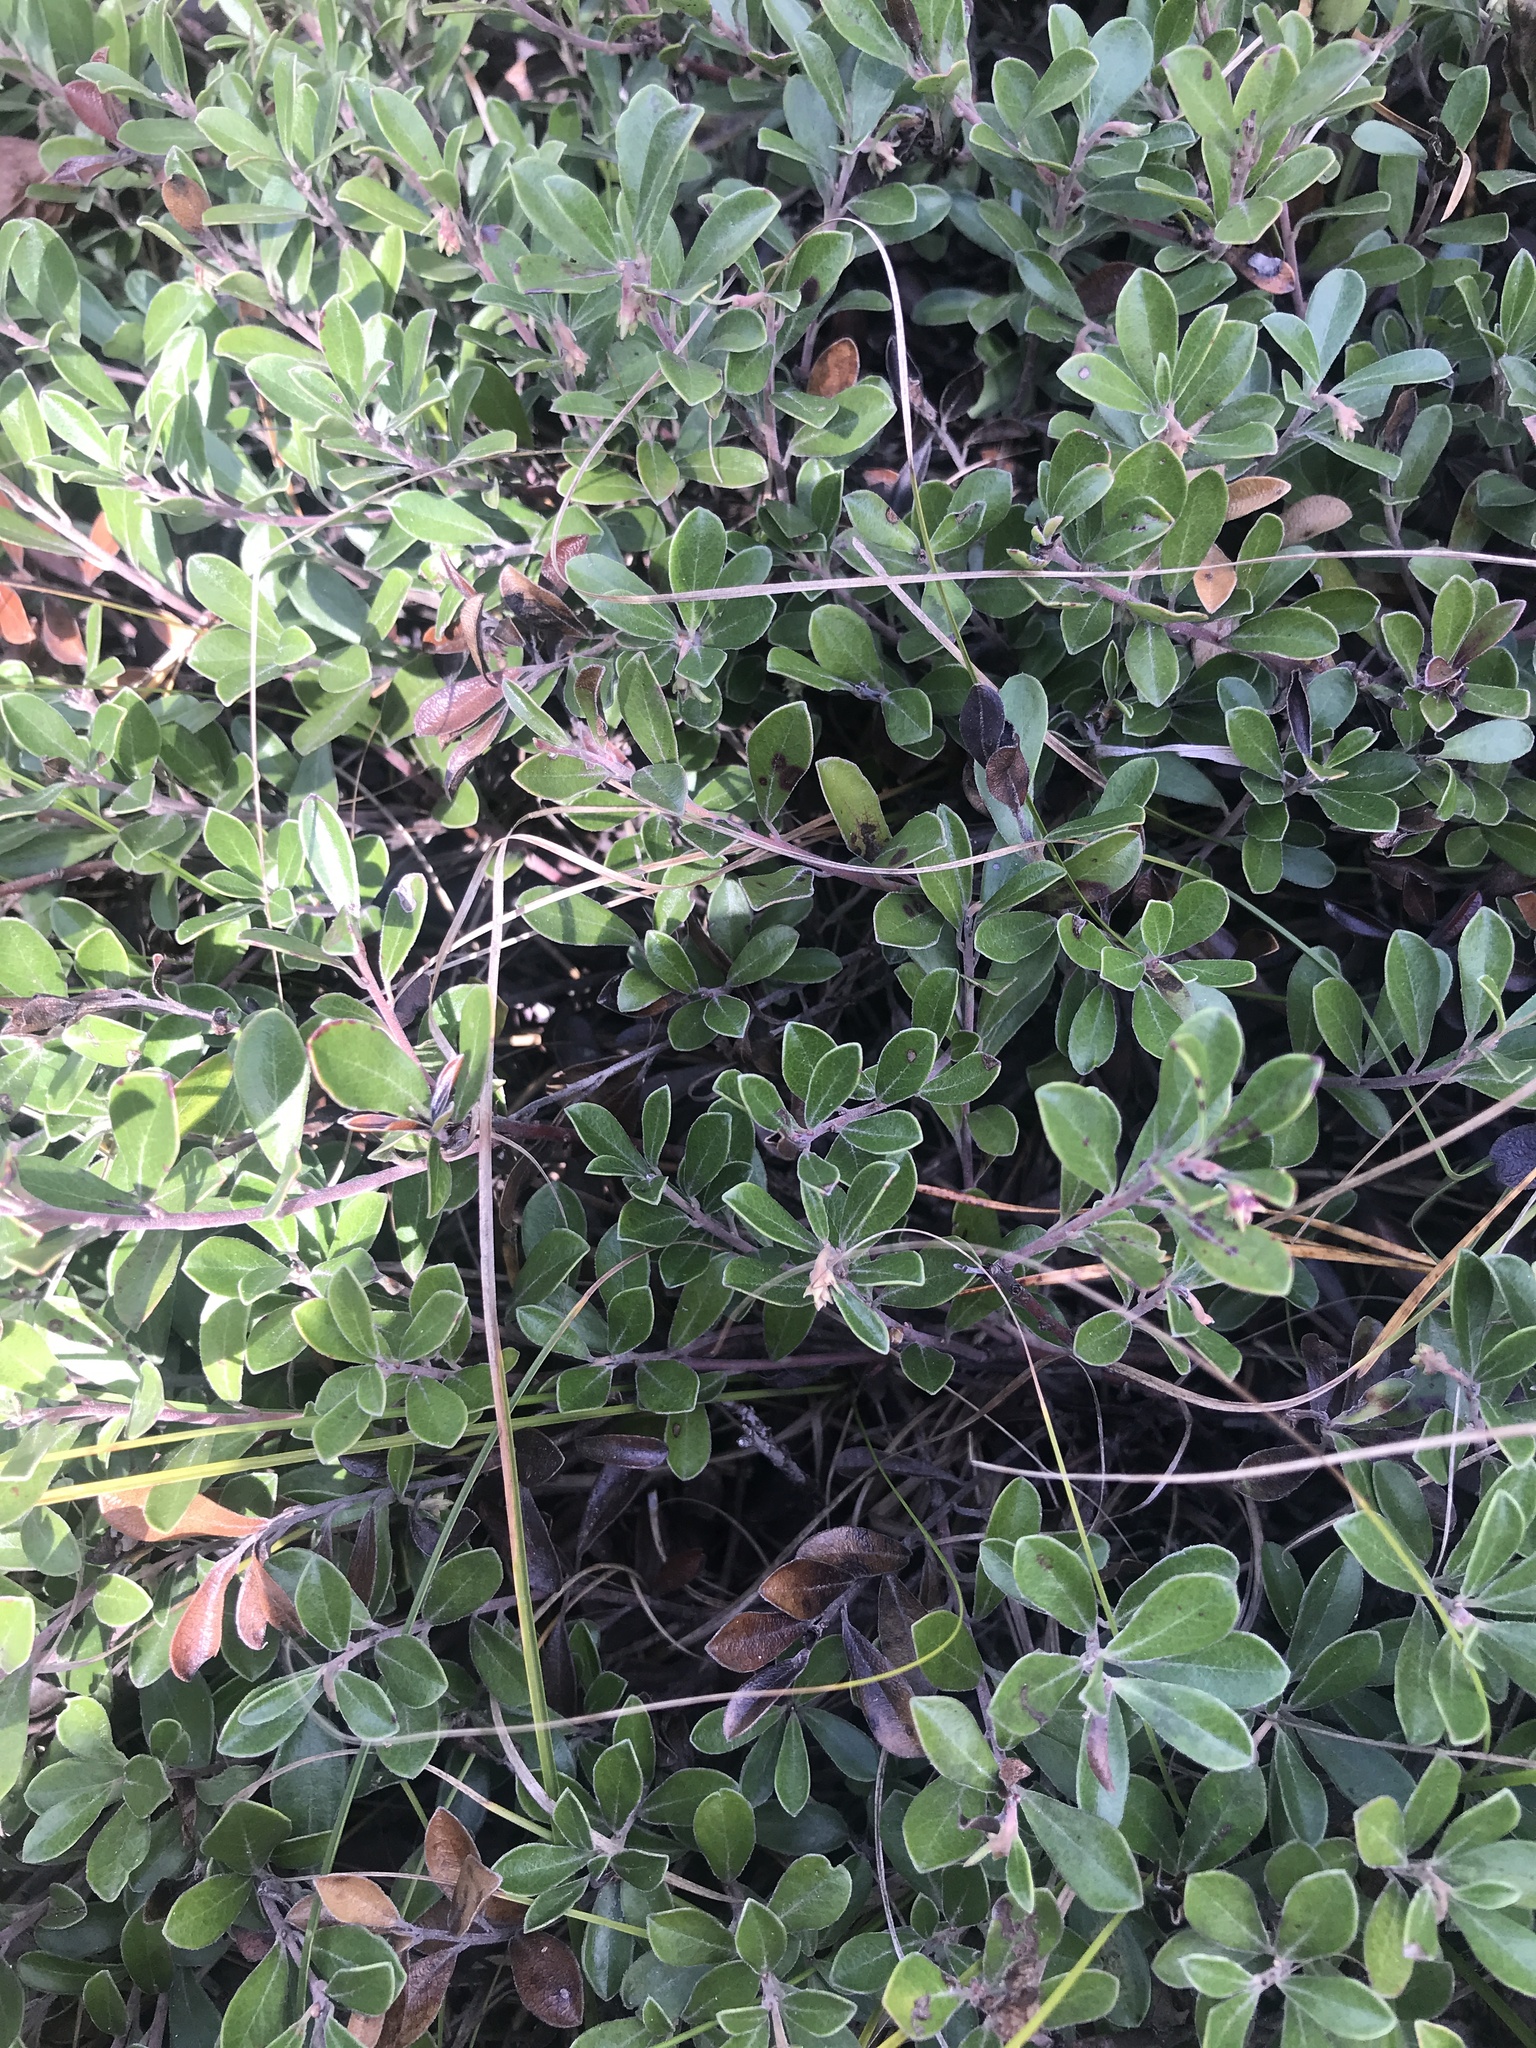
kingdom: Plantae
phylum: Tracheophyta
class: Magnoliopsida
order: Ericales
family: Ericaceae
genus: Arctostaphylos
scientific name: Arctostaphylos uva-ursi
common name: Bearberry
